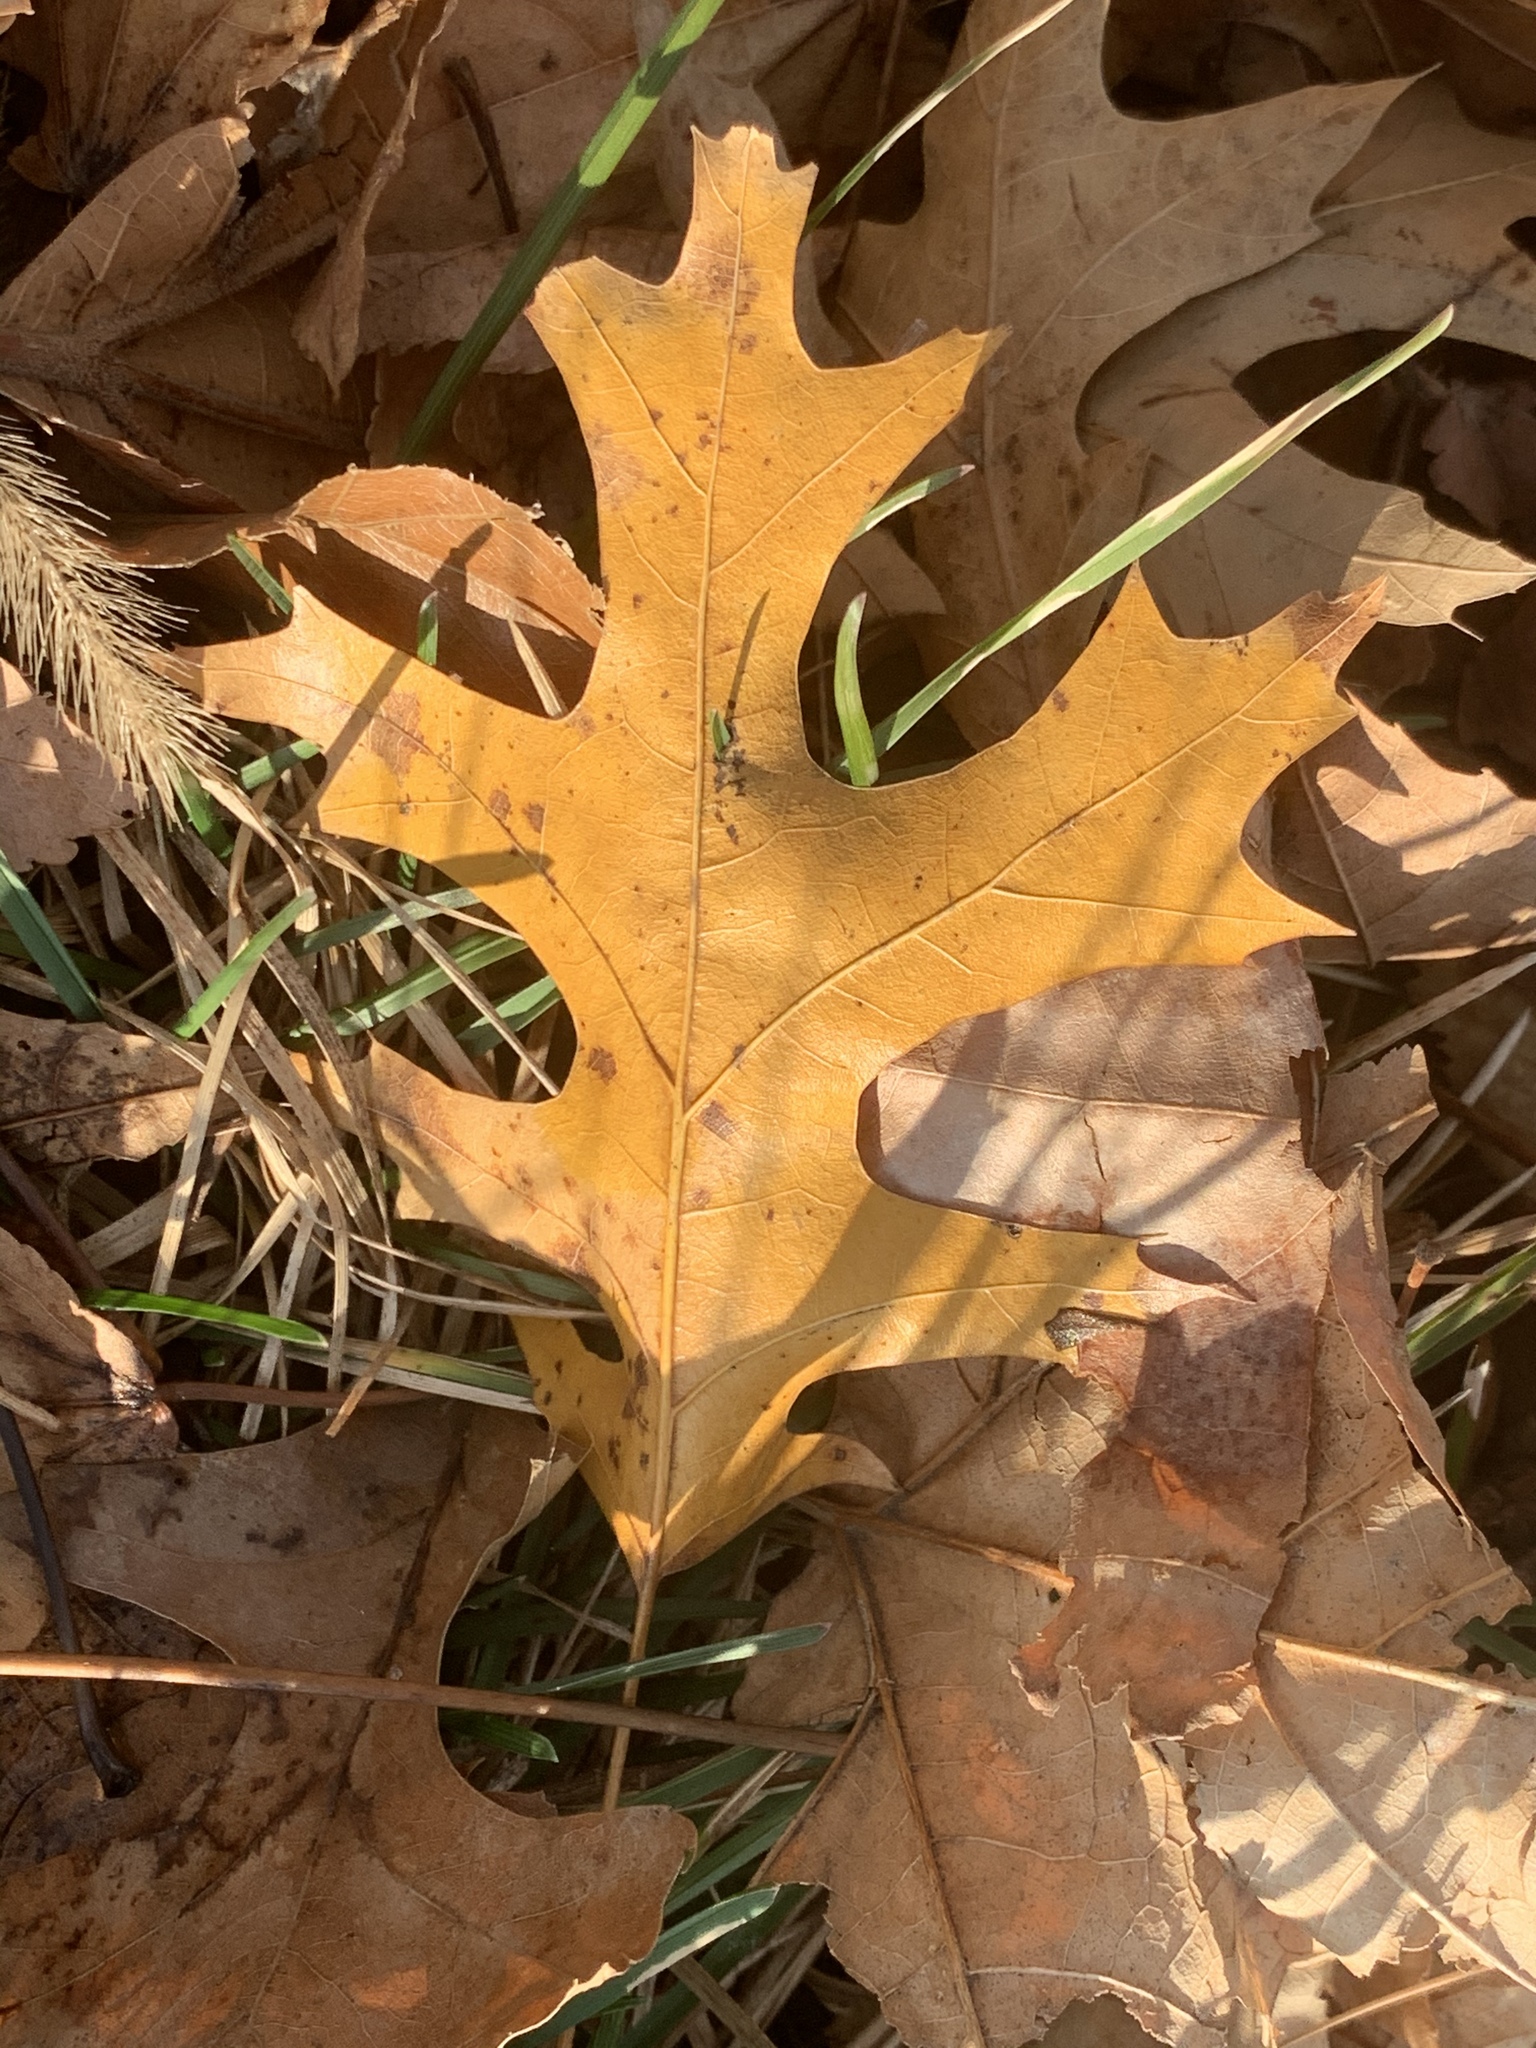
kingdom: Plantae
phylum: Tracheophyta
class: Magnoliopsida
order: Fagales
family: Fagaceae
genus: Quercus
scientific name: Quercus coccinea
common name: Scarlet oak
